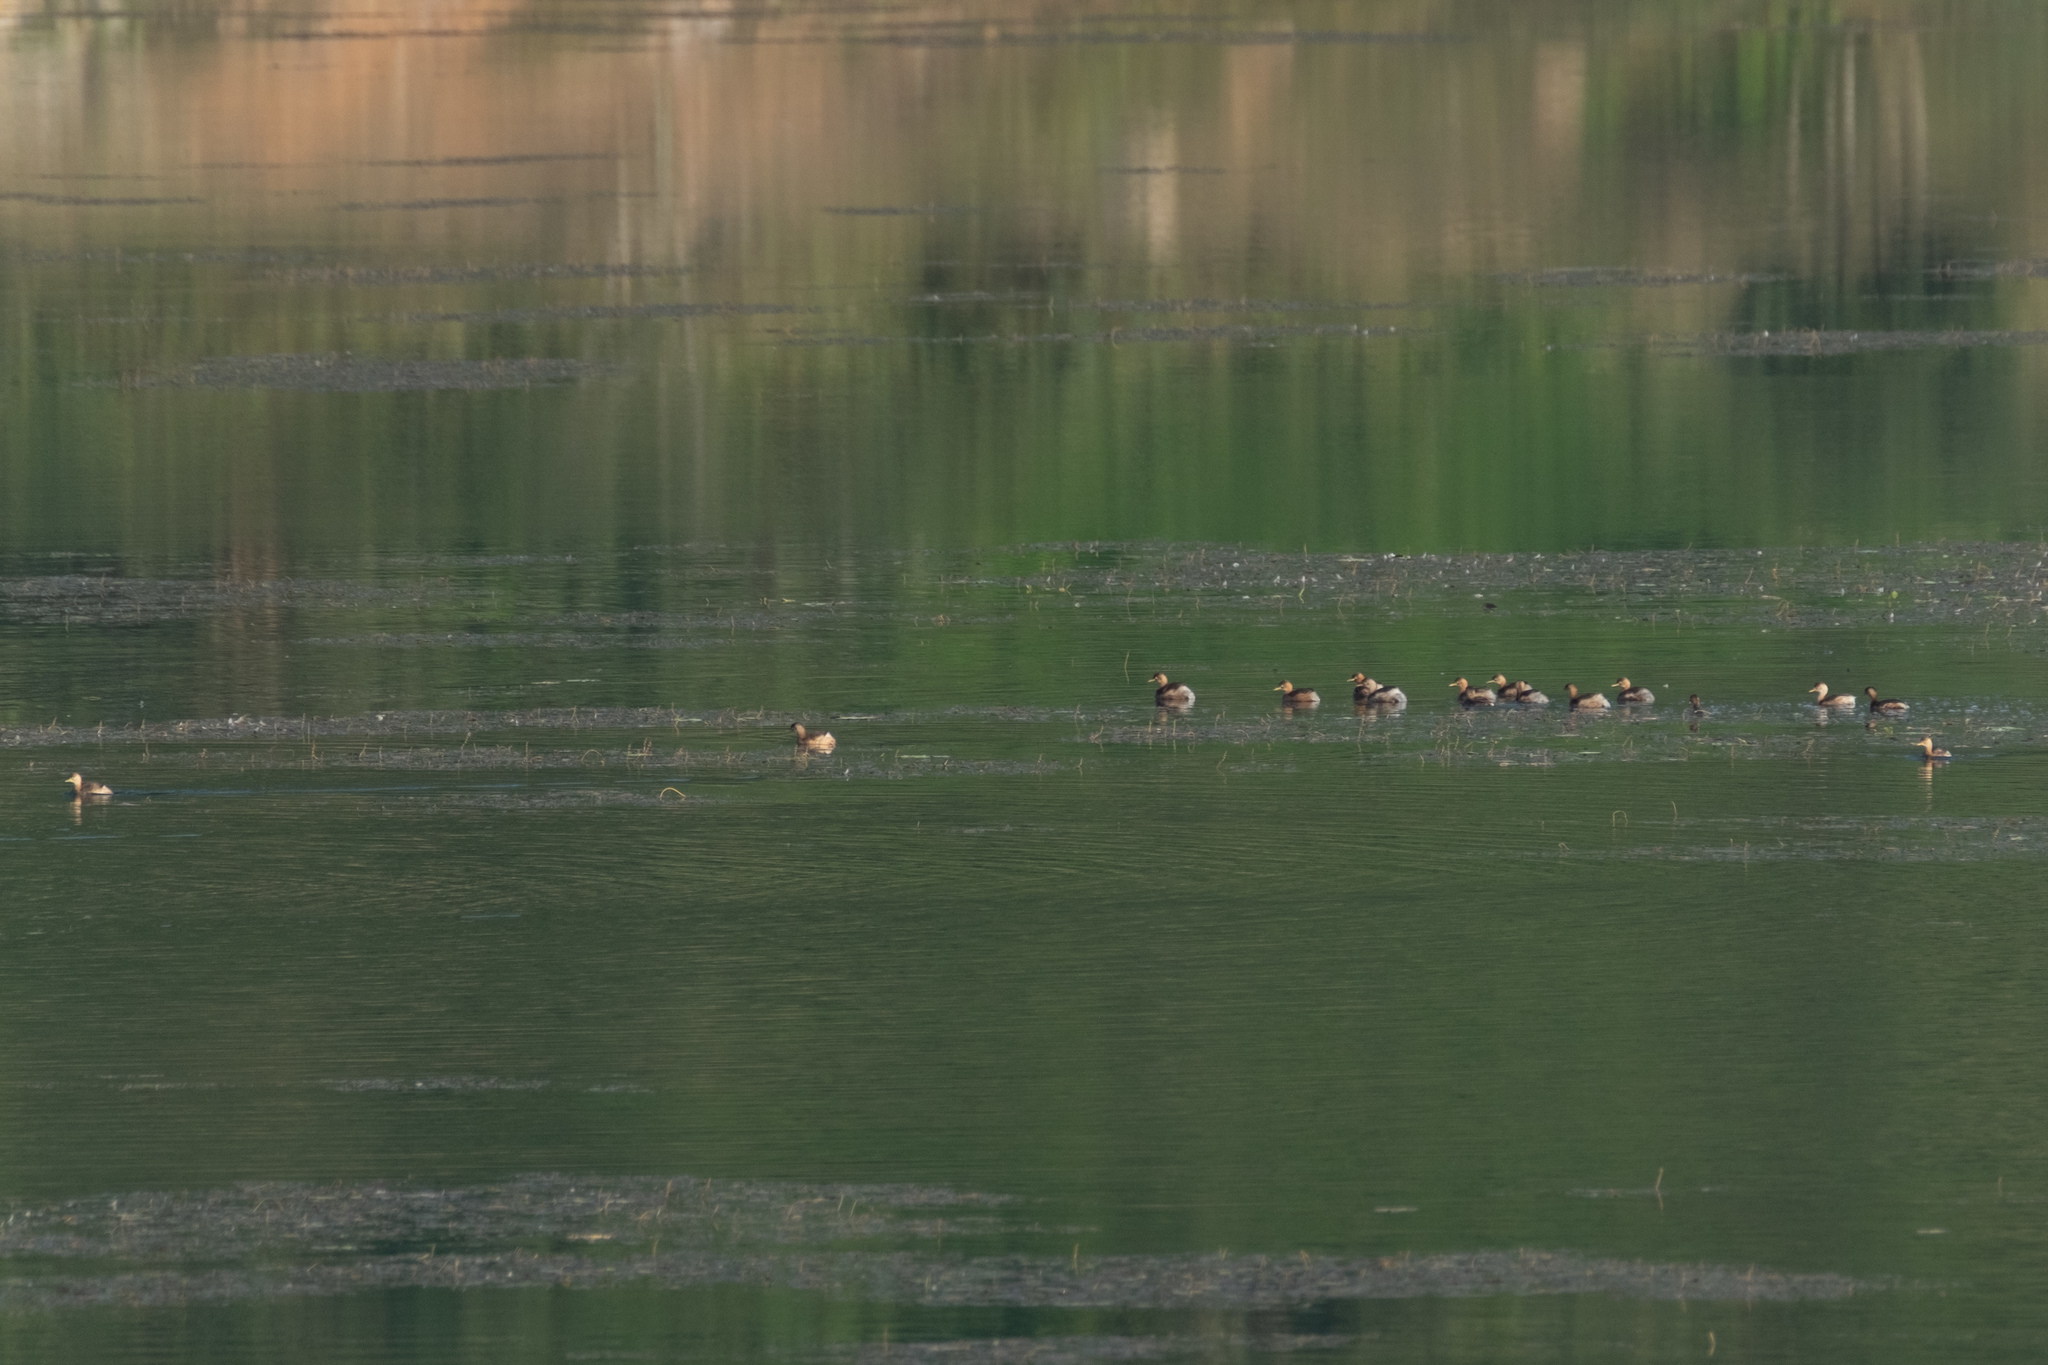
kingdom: Animalia
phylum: Chordata
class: Aves
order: Podicipediformes
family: Podicipedidae
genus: Tachybaptus
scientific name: Tachybaptus ruficollis
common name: Little grebe
